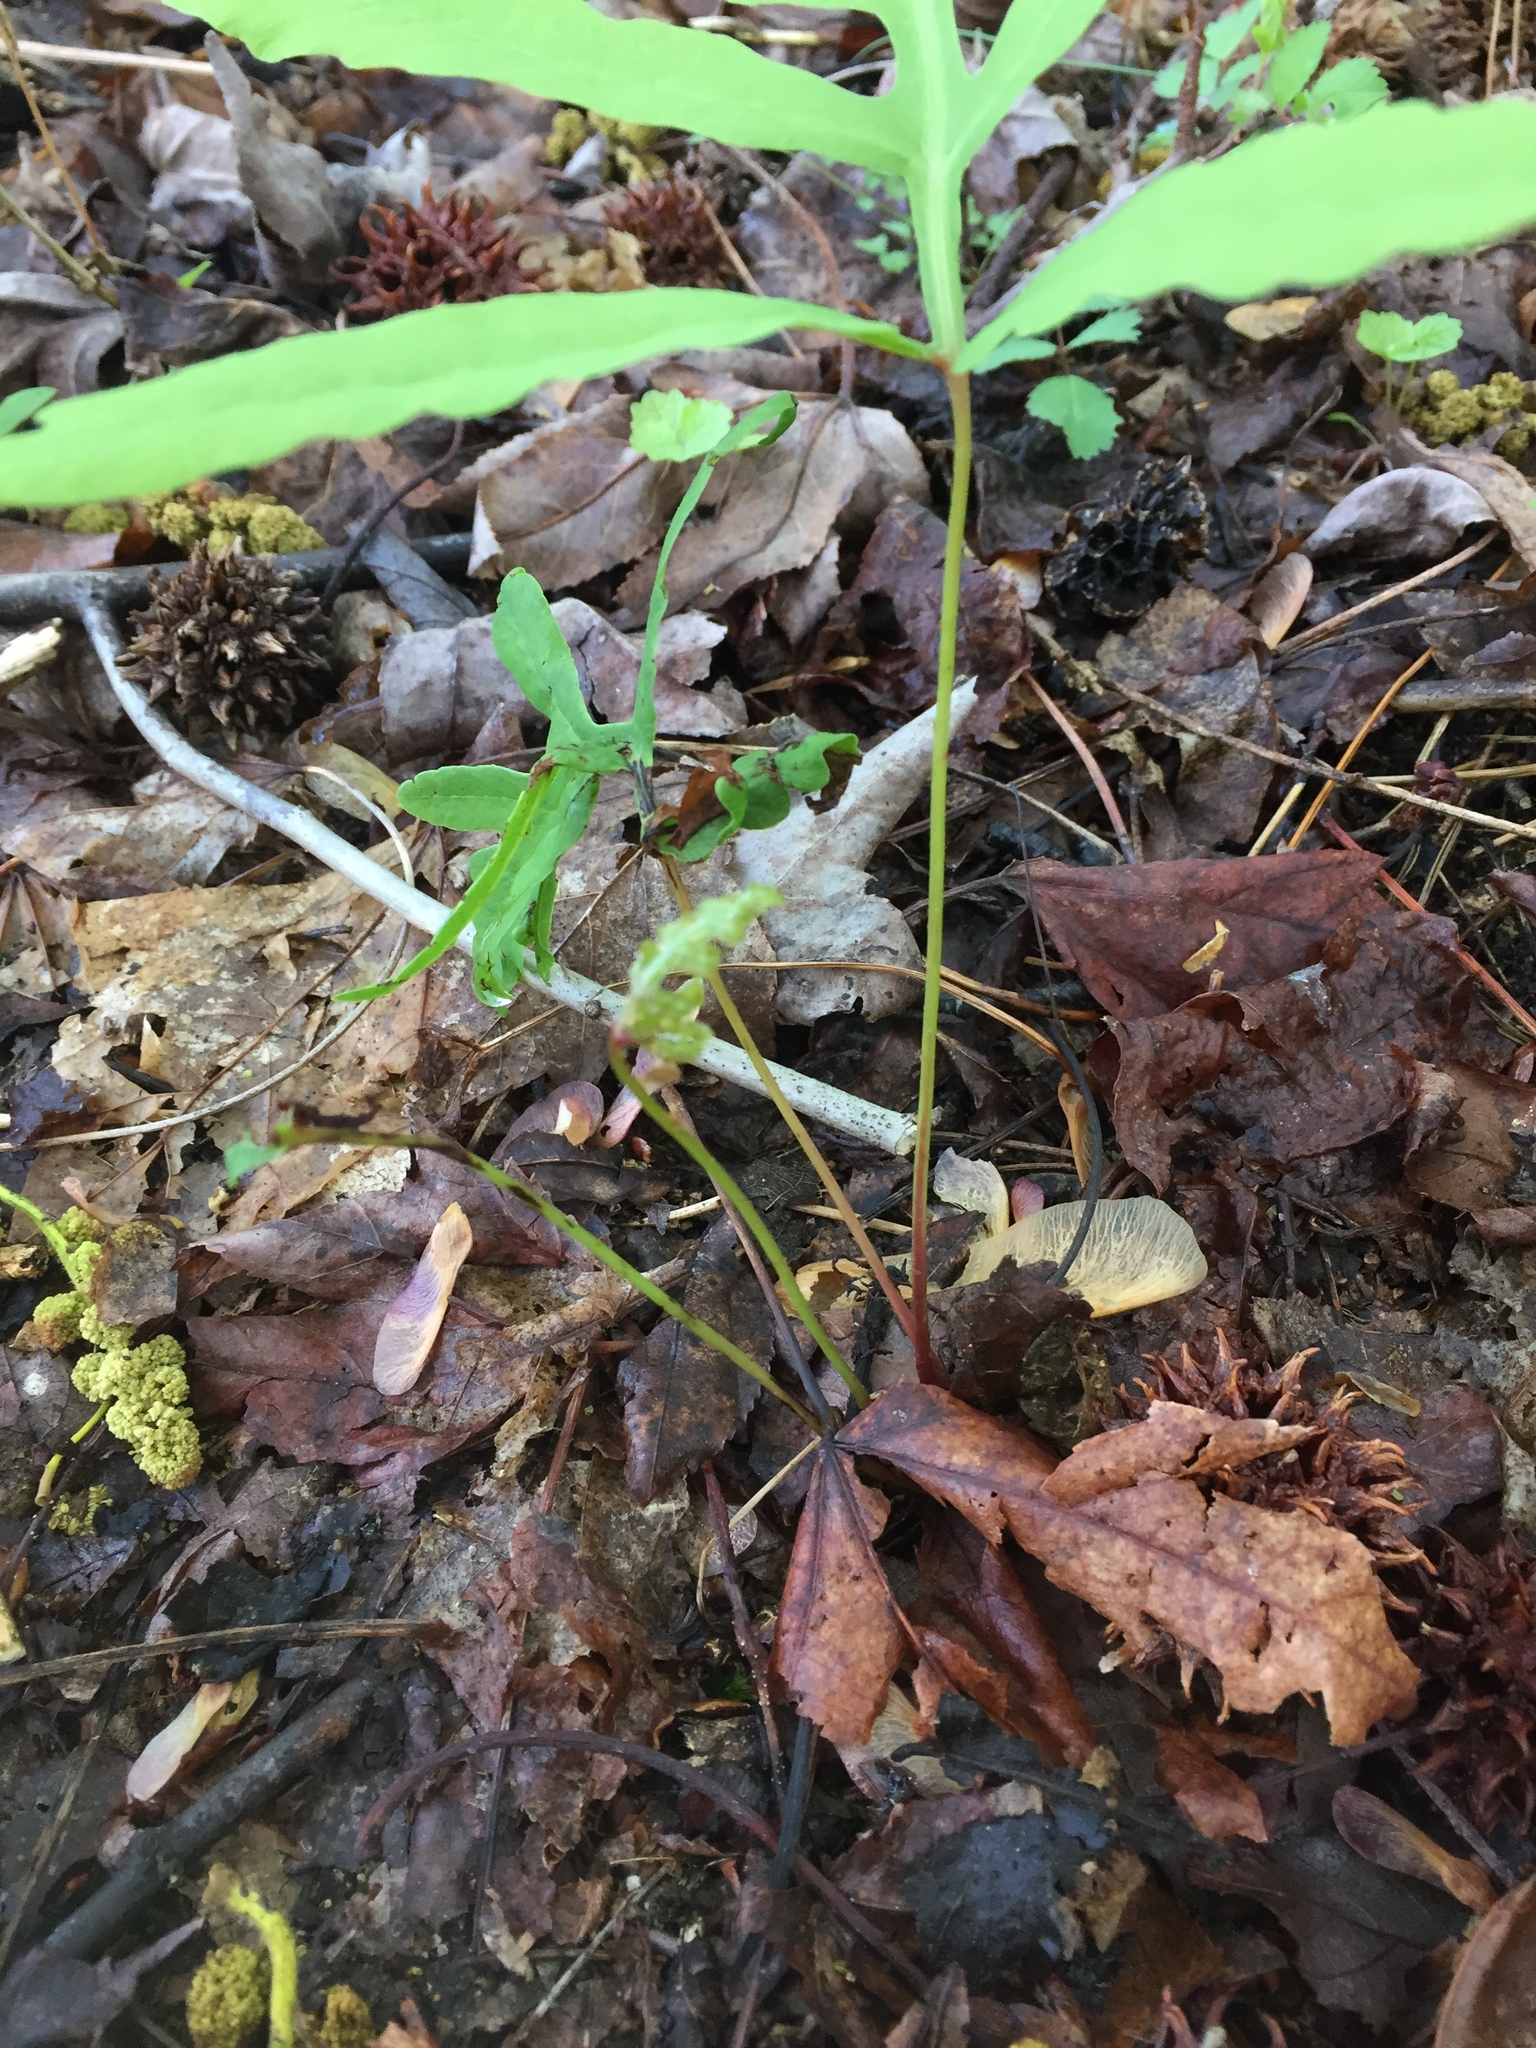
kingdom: Plantae
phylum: Tracheophyta
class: Polypodiopsida
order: Polypodiales
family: Onocleaceae
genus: Onoclea
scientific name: Onoclea sensibilis
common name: Sensitive fern
